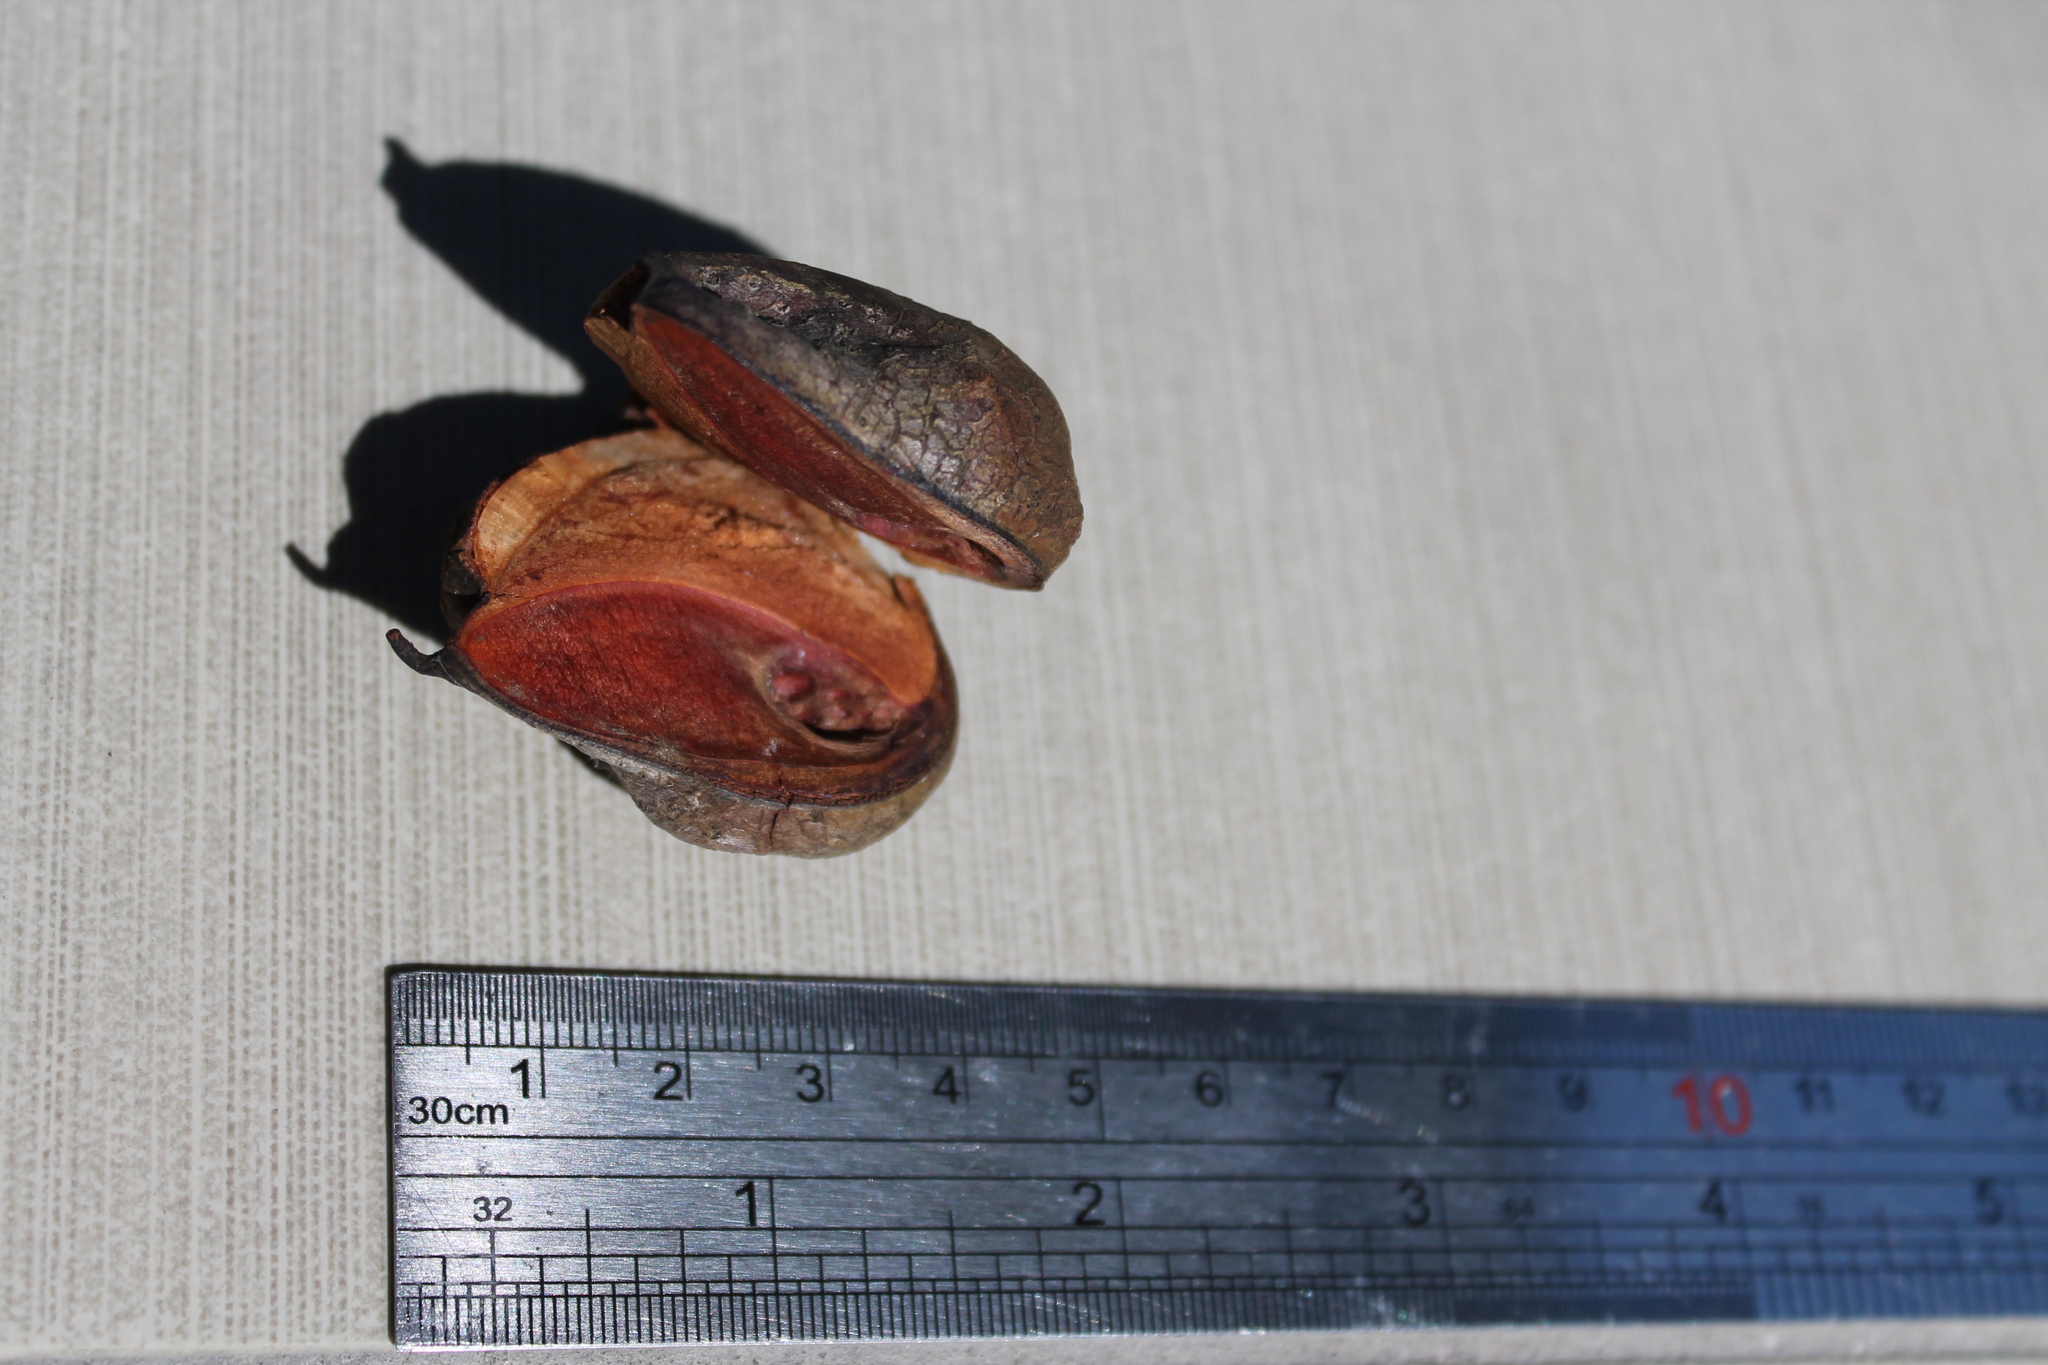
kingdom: Plantae
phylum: Tracheophyta
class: Magnoliopsida
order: Proteales
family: Proteaceae
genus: Hakea
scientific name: Hakea sericea
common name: Needle bush
